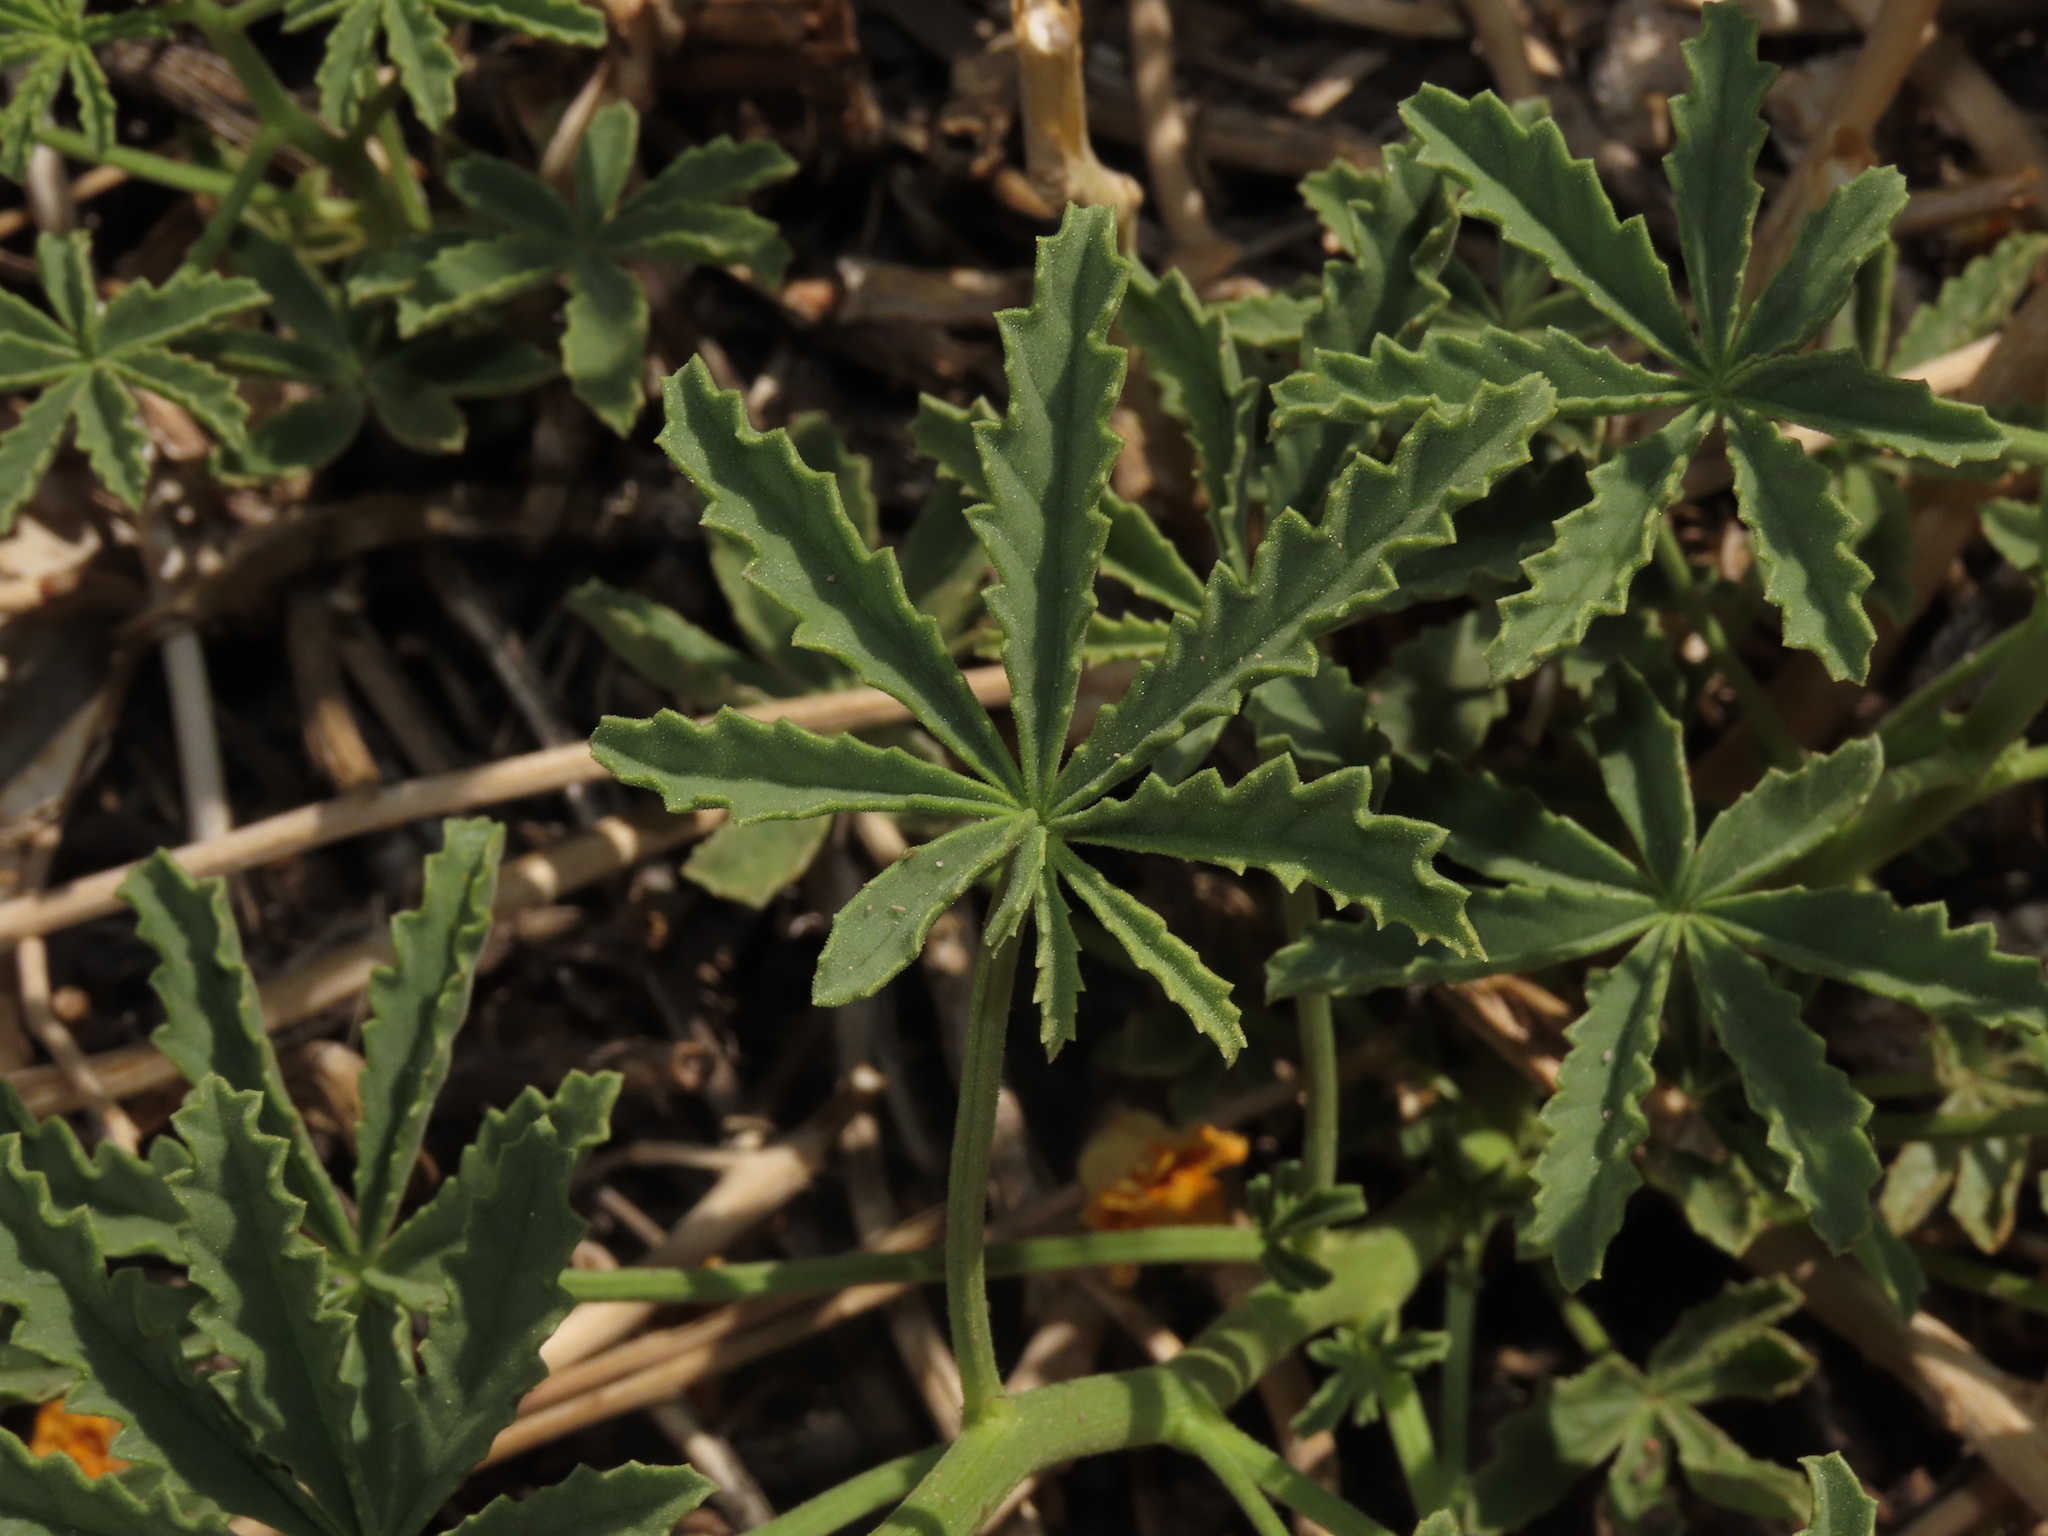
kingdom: Plantae
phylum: Tracheophyta
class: Magnoliopsida
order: Lamiales
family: Bignoniaceae
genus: Argylia
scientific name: Argylia potentillifolia
